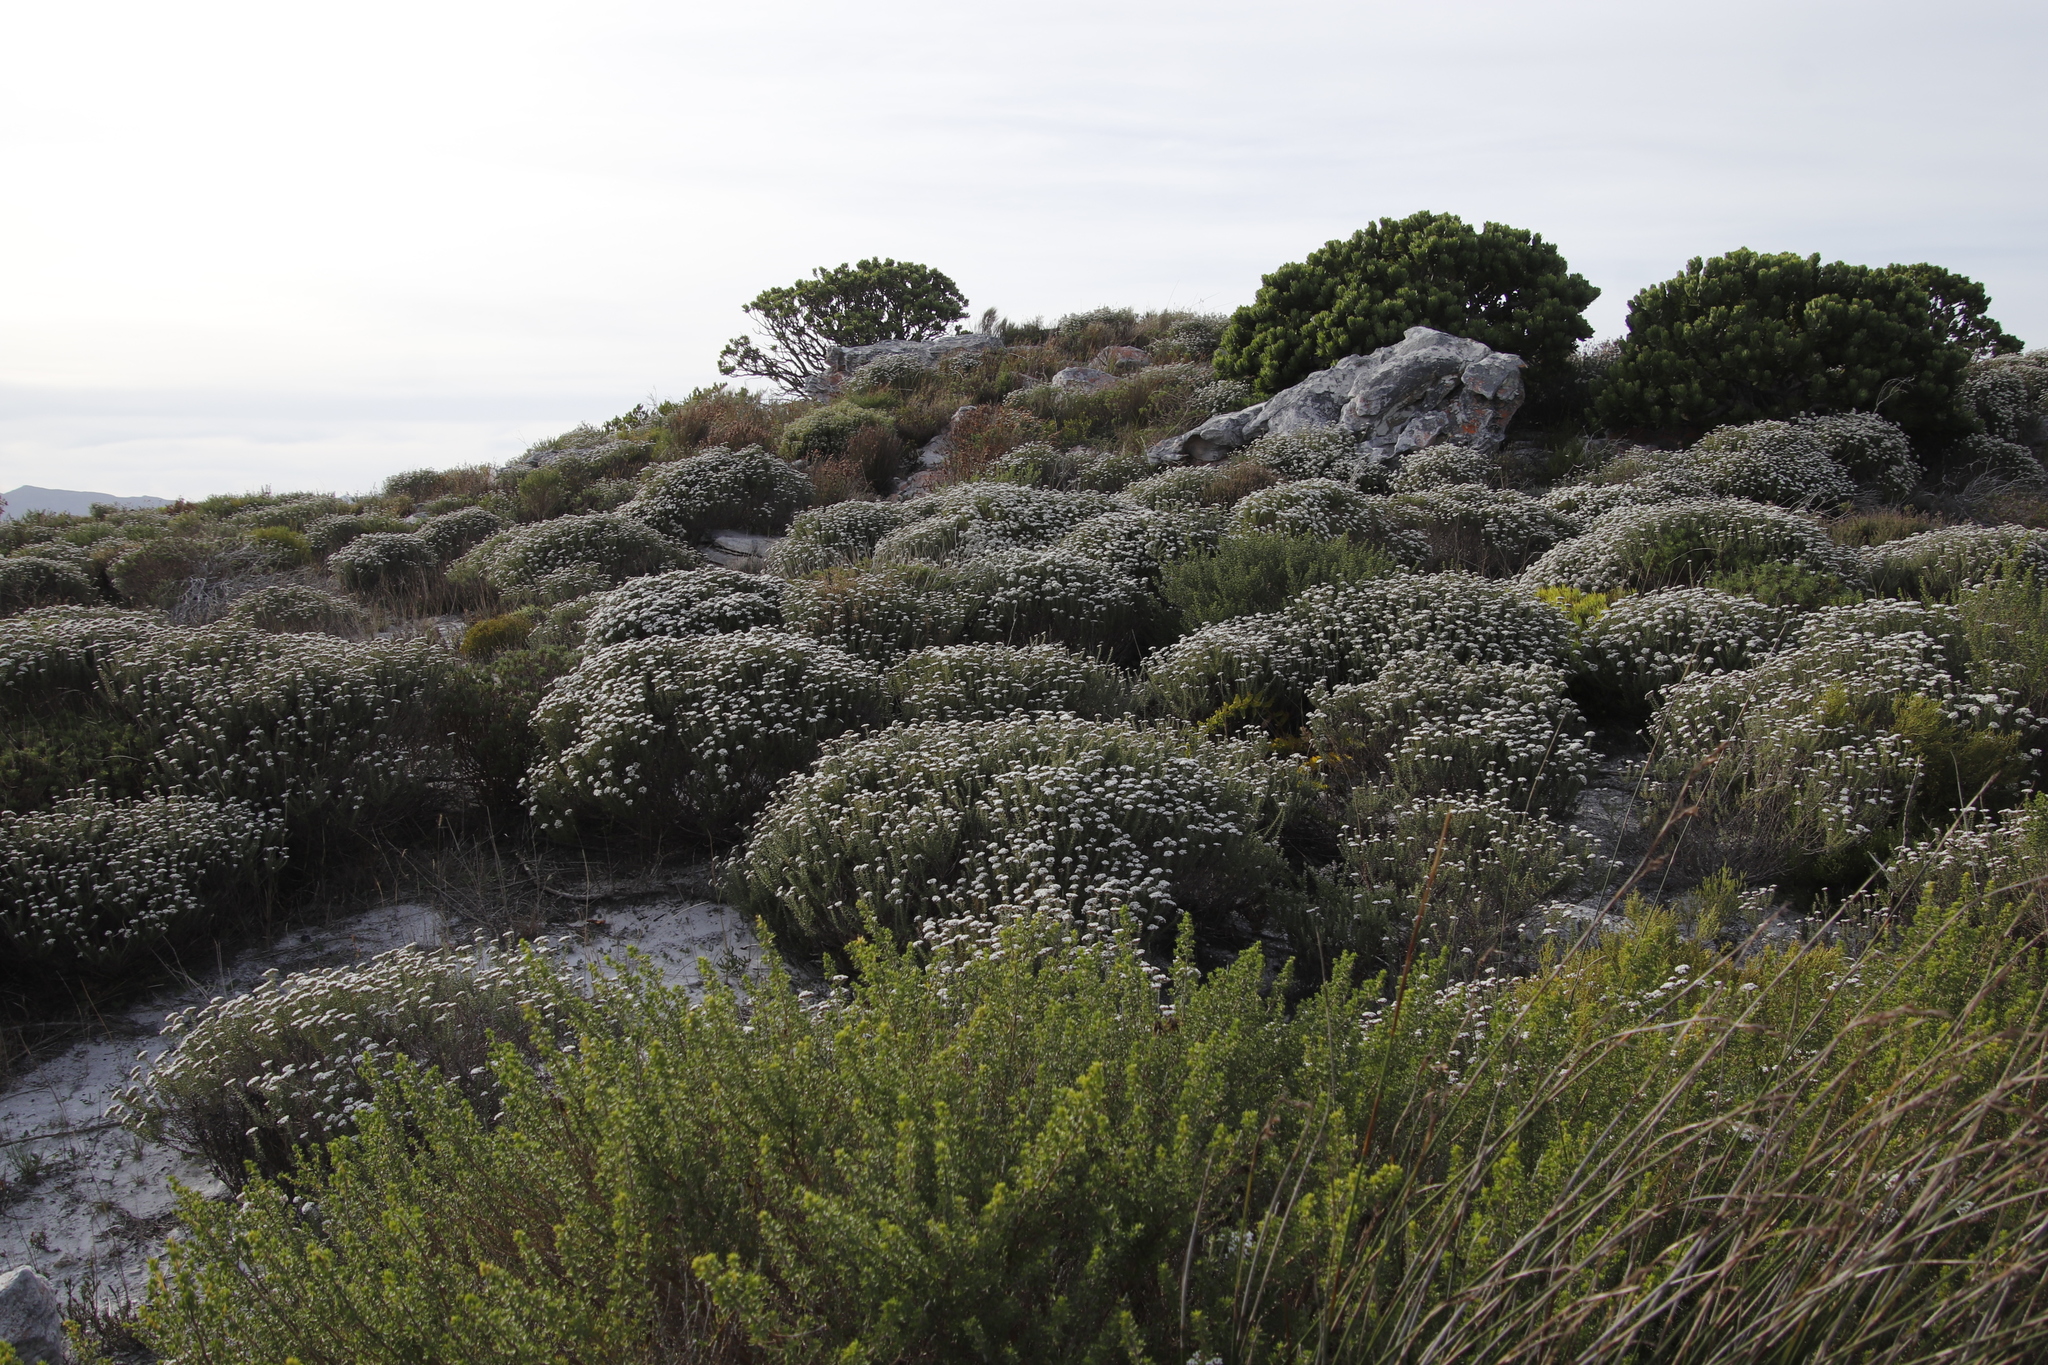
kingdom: Plantae
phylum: Tracheophyta
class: Magnoliopsida
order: Asterales
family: Asteraceae
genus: Metalasia
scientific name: Metalasia densa
